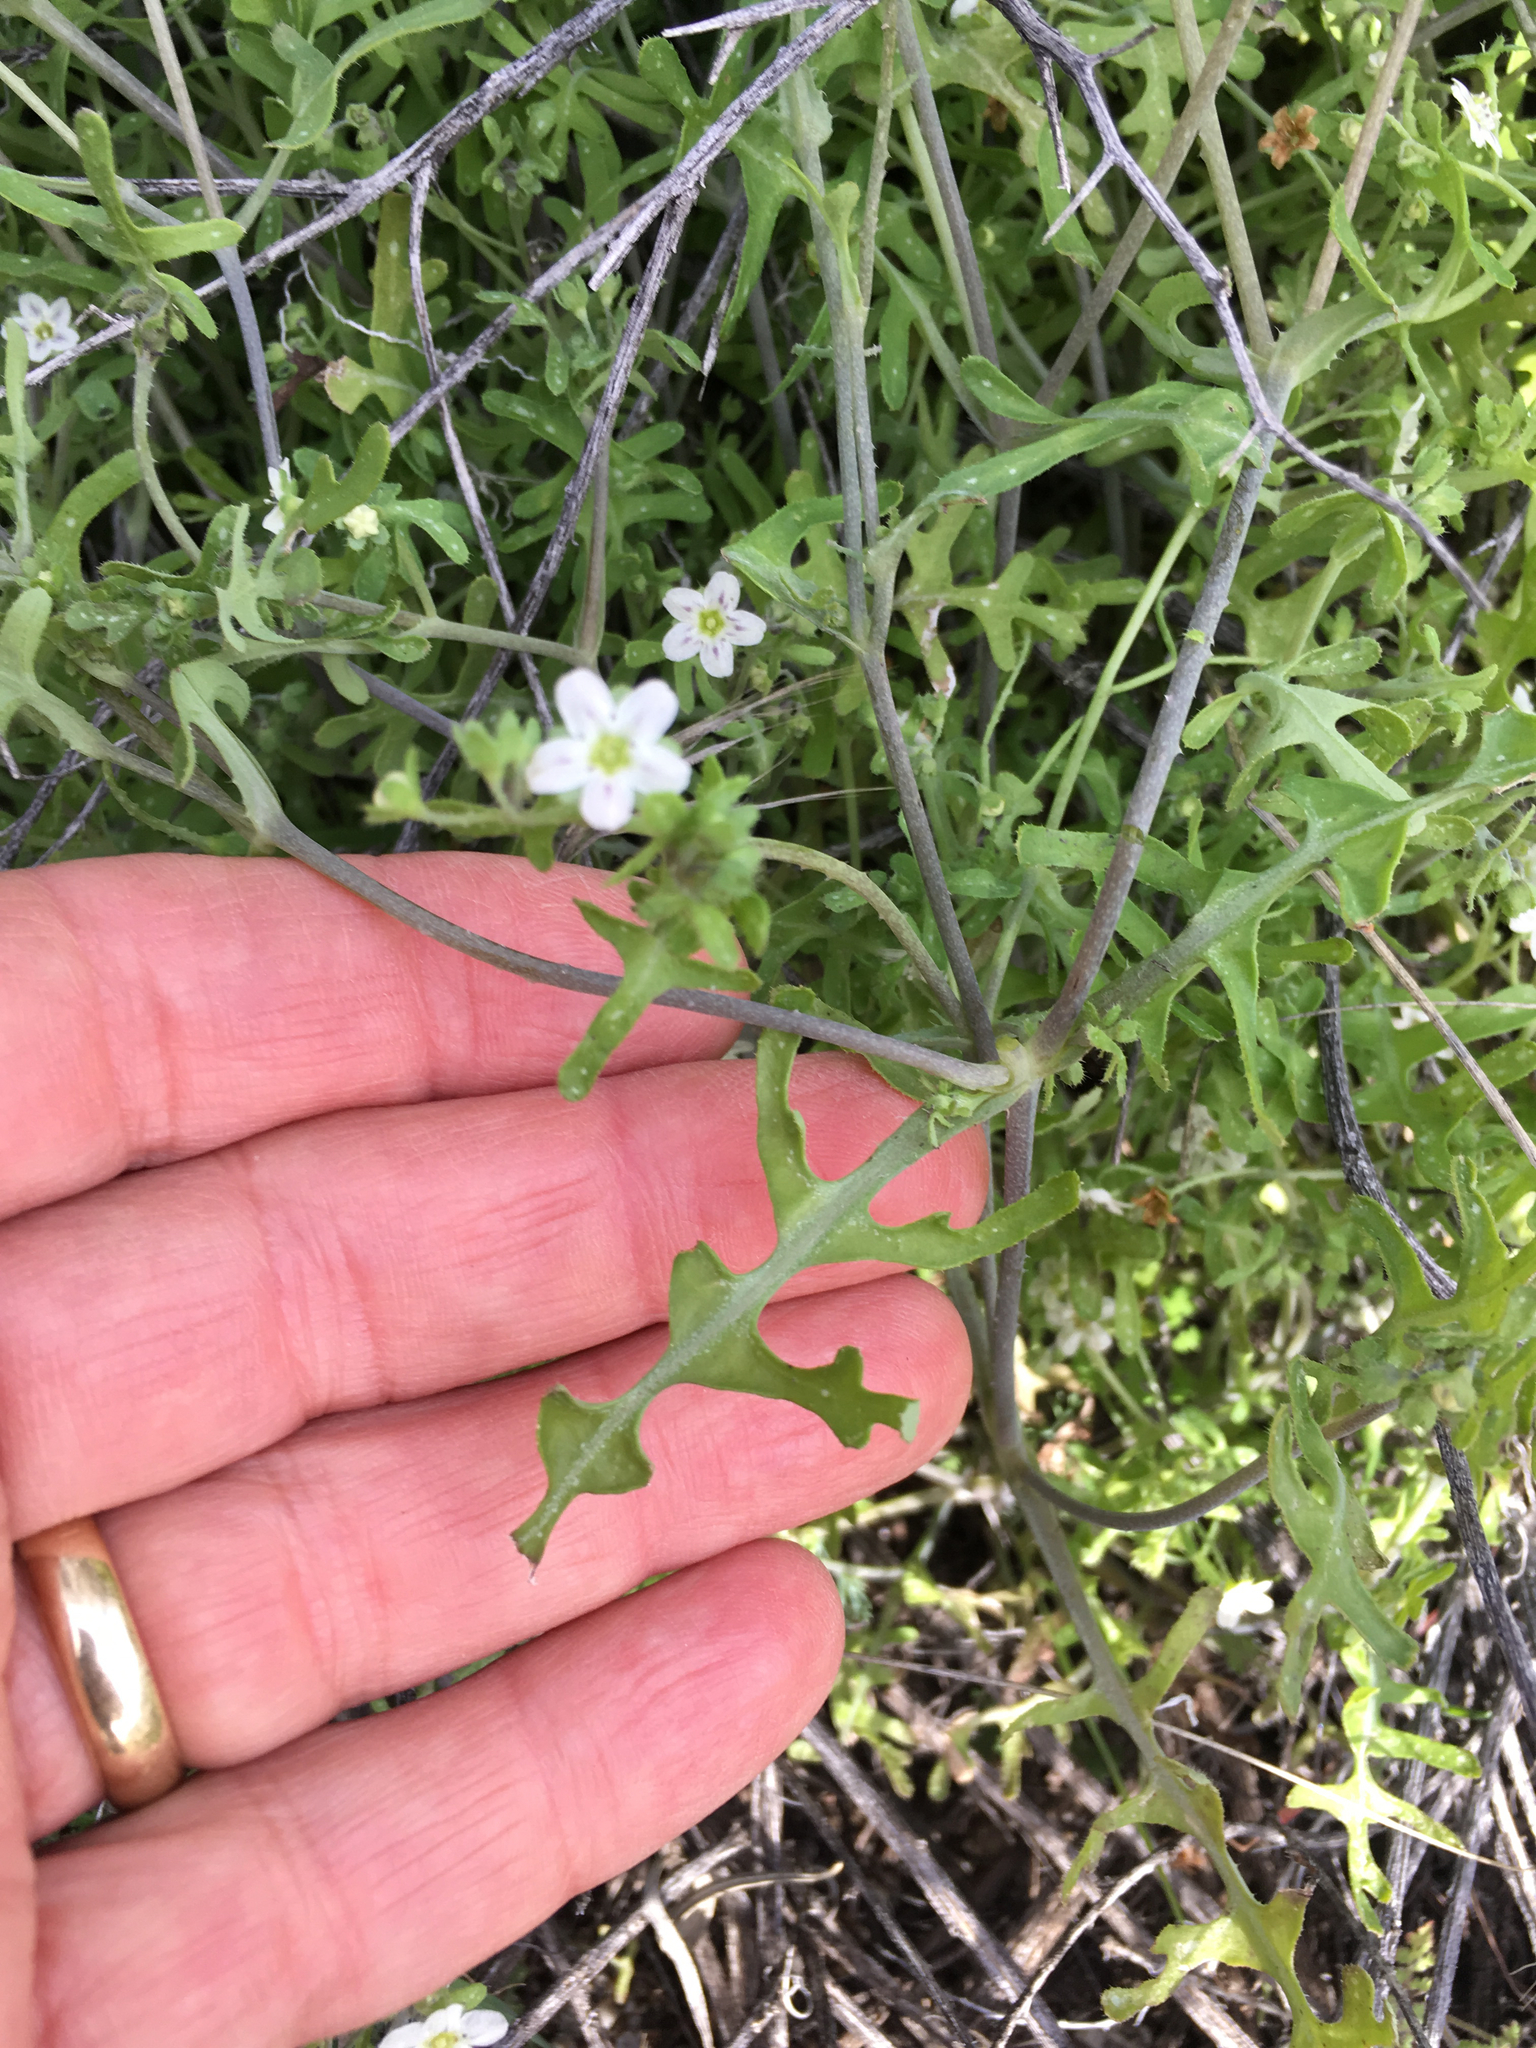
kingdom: Plantae
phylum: Tracheophyta
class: Magnoliopsida
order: Boraginales
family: Hydrophyllaceae
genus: Pholistoma
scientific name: Pholistoma membranaceum
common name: White fiesta-flower
